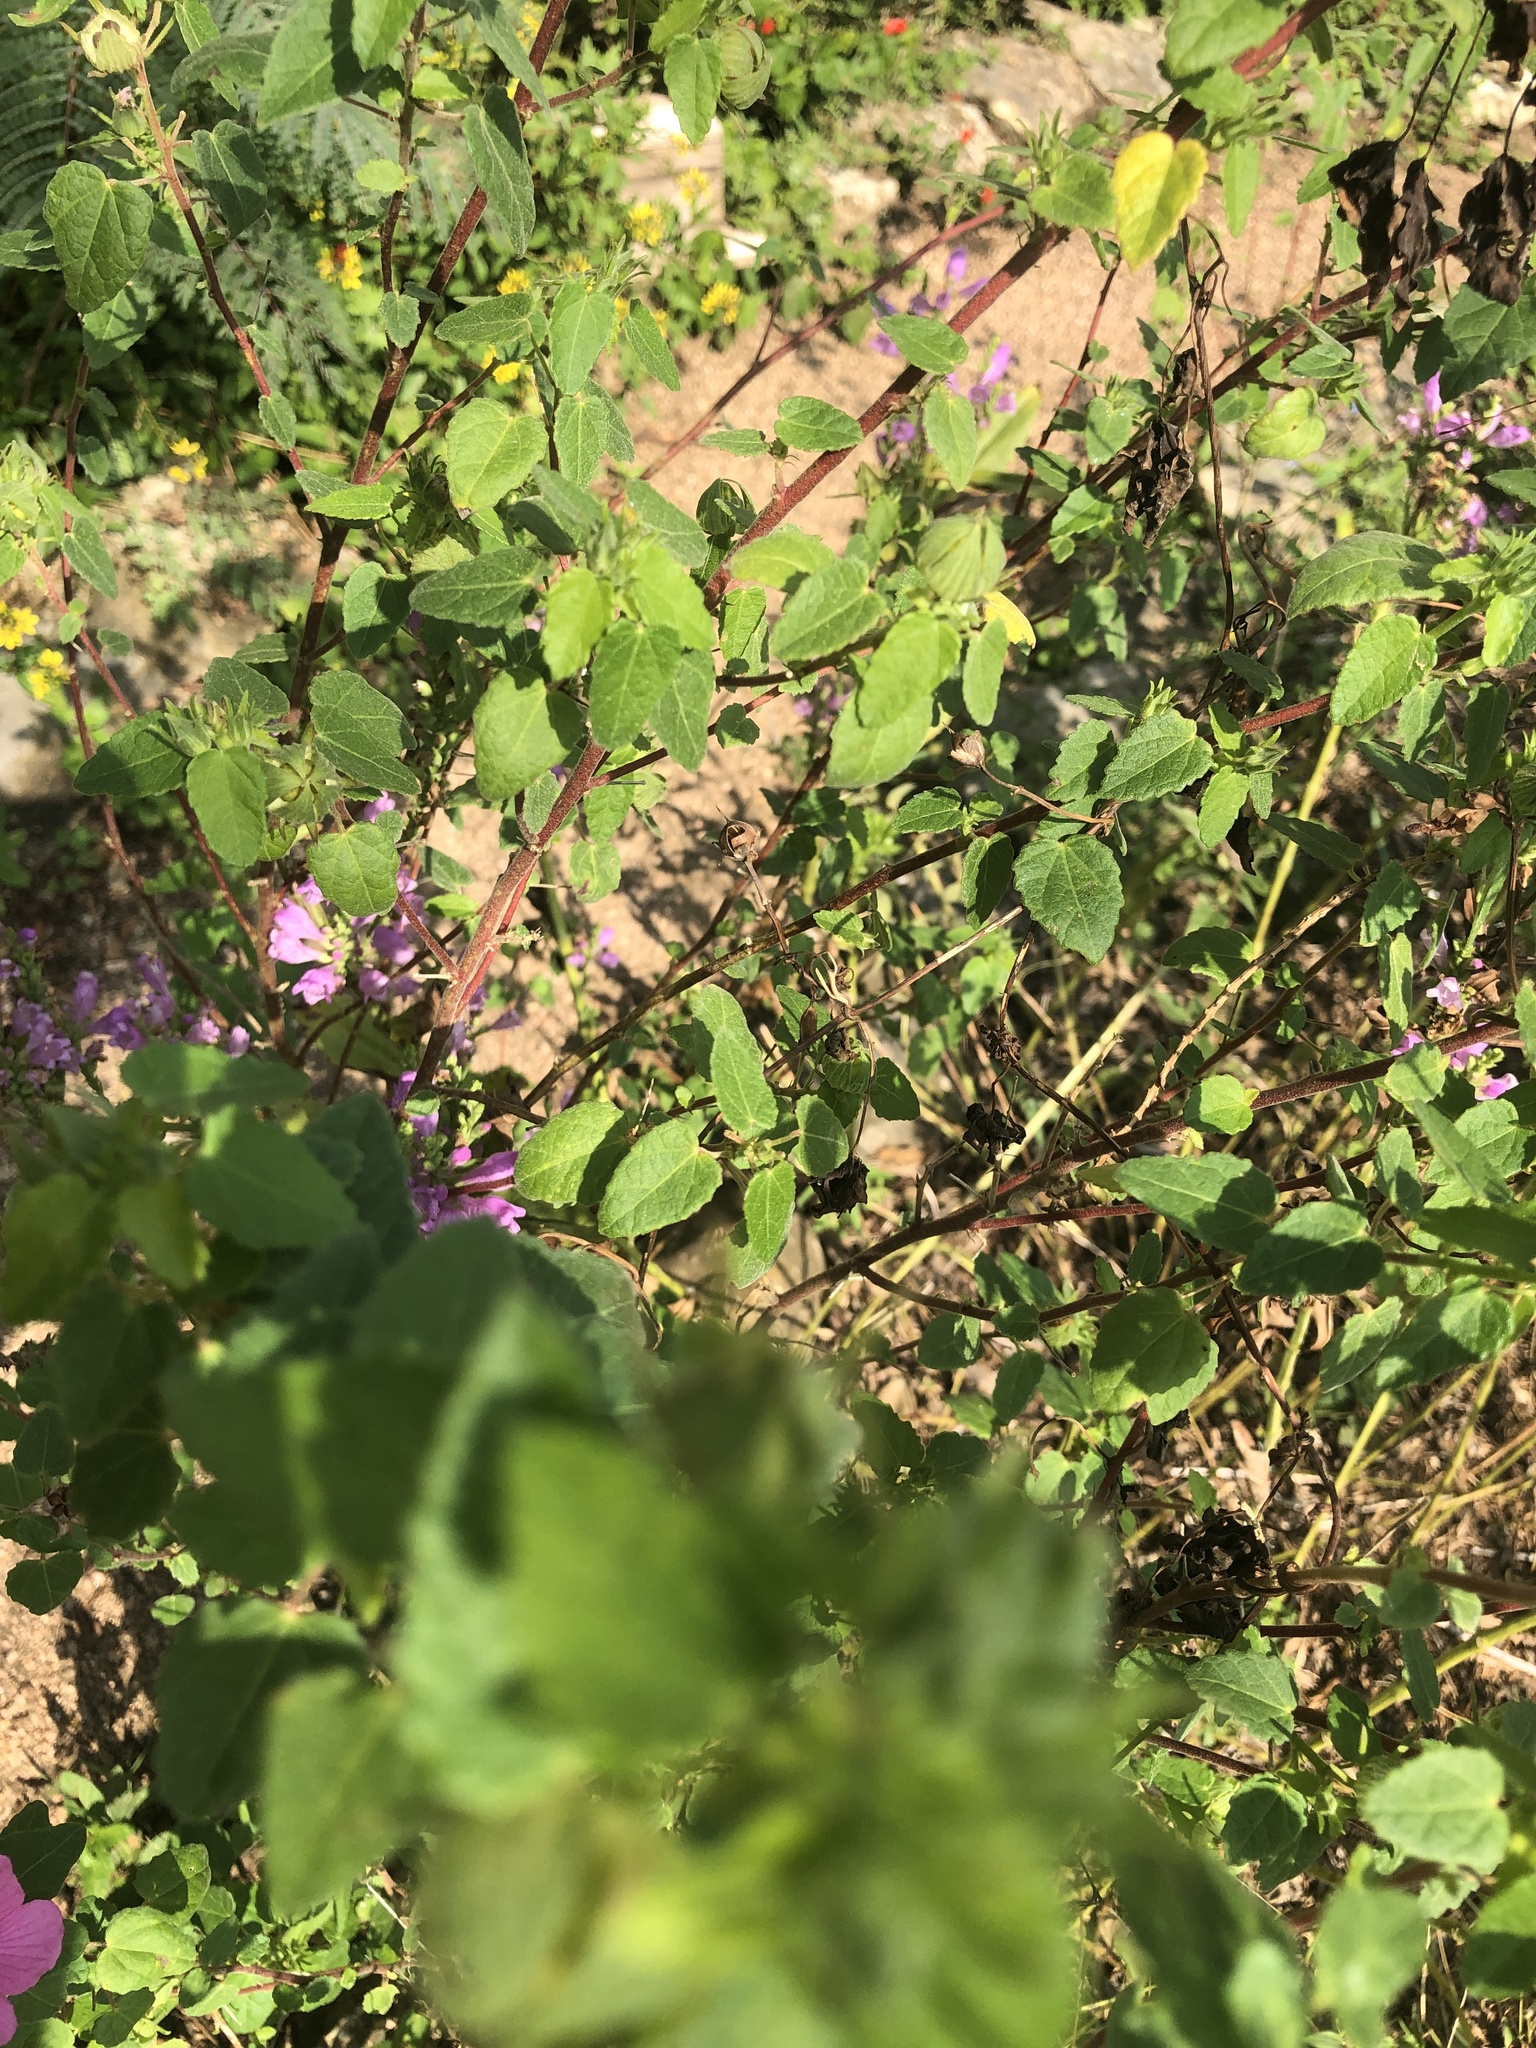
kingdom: Plantae
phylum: Tracheophyta
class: Magnoliopsida
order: Malvales
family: Malvaceae
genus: Pavonia
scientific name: Pavonia lasiopetala
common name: Texas swamp-mallow
